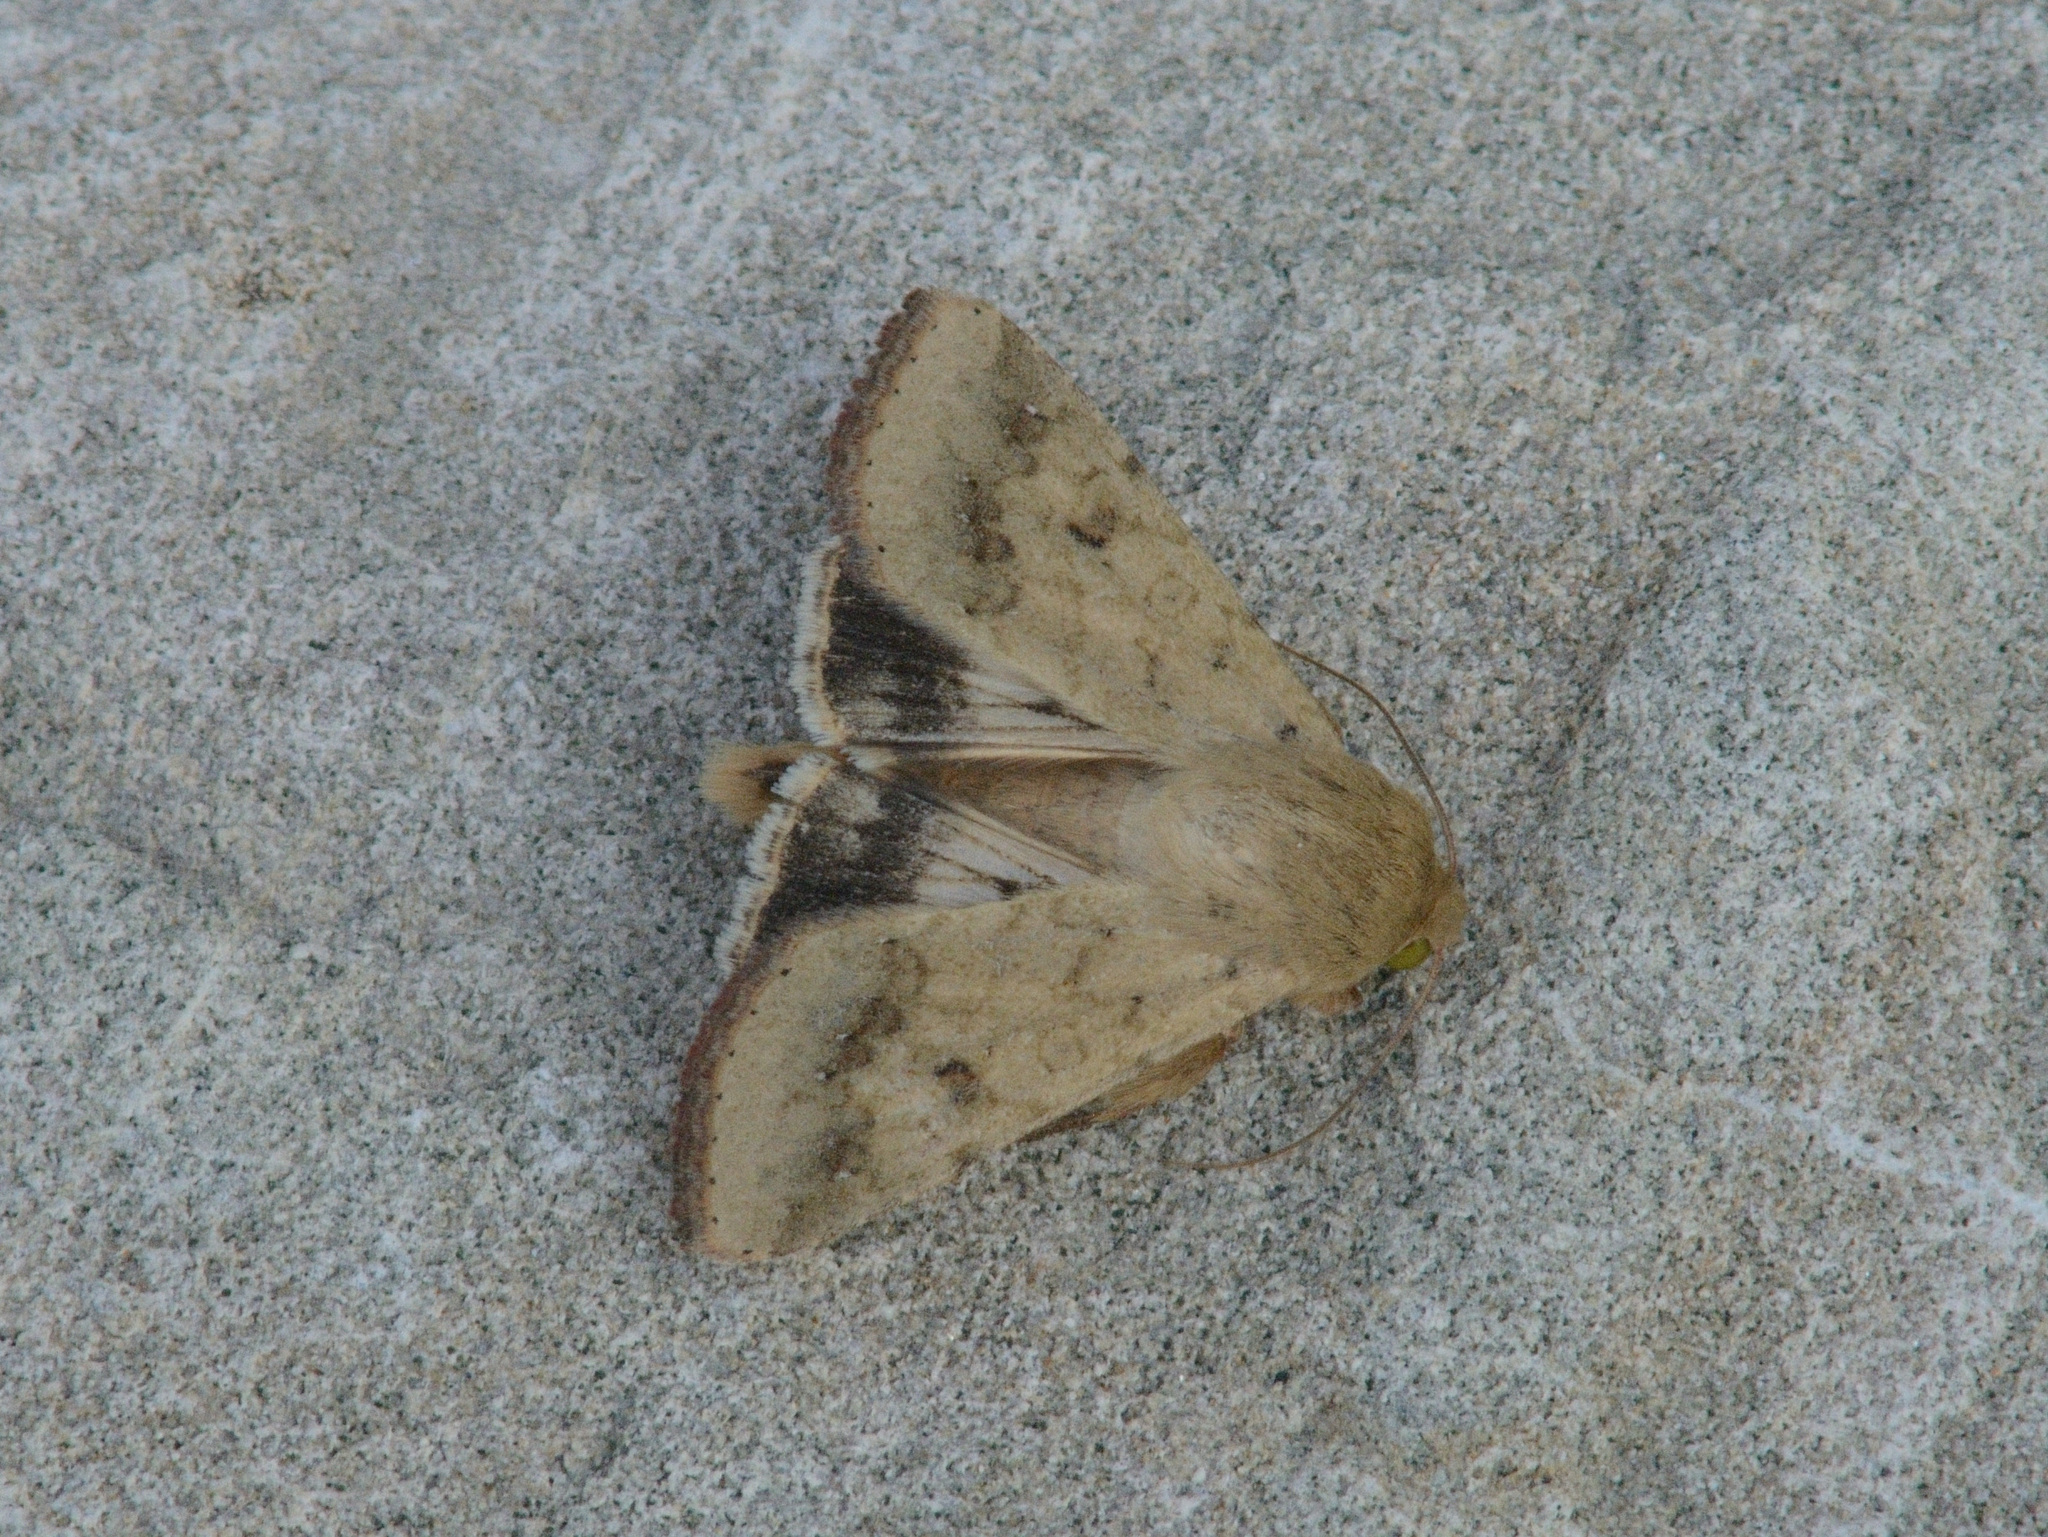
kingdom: Animalia
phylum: Arthropoda
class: Insecta
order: Lepidoptera
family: Noctuidae
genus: Helicoverpa
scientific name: Helicoverpa armigera
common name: Cotton bollworm
